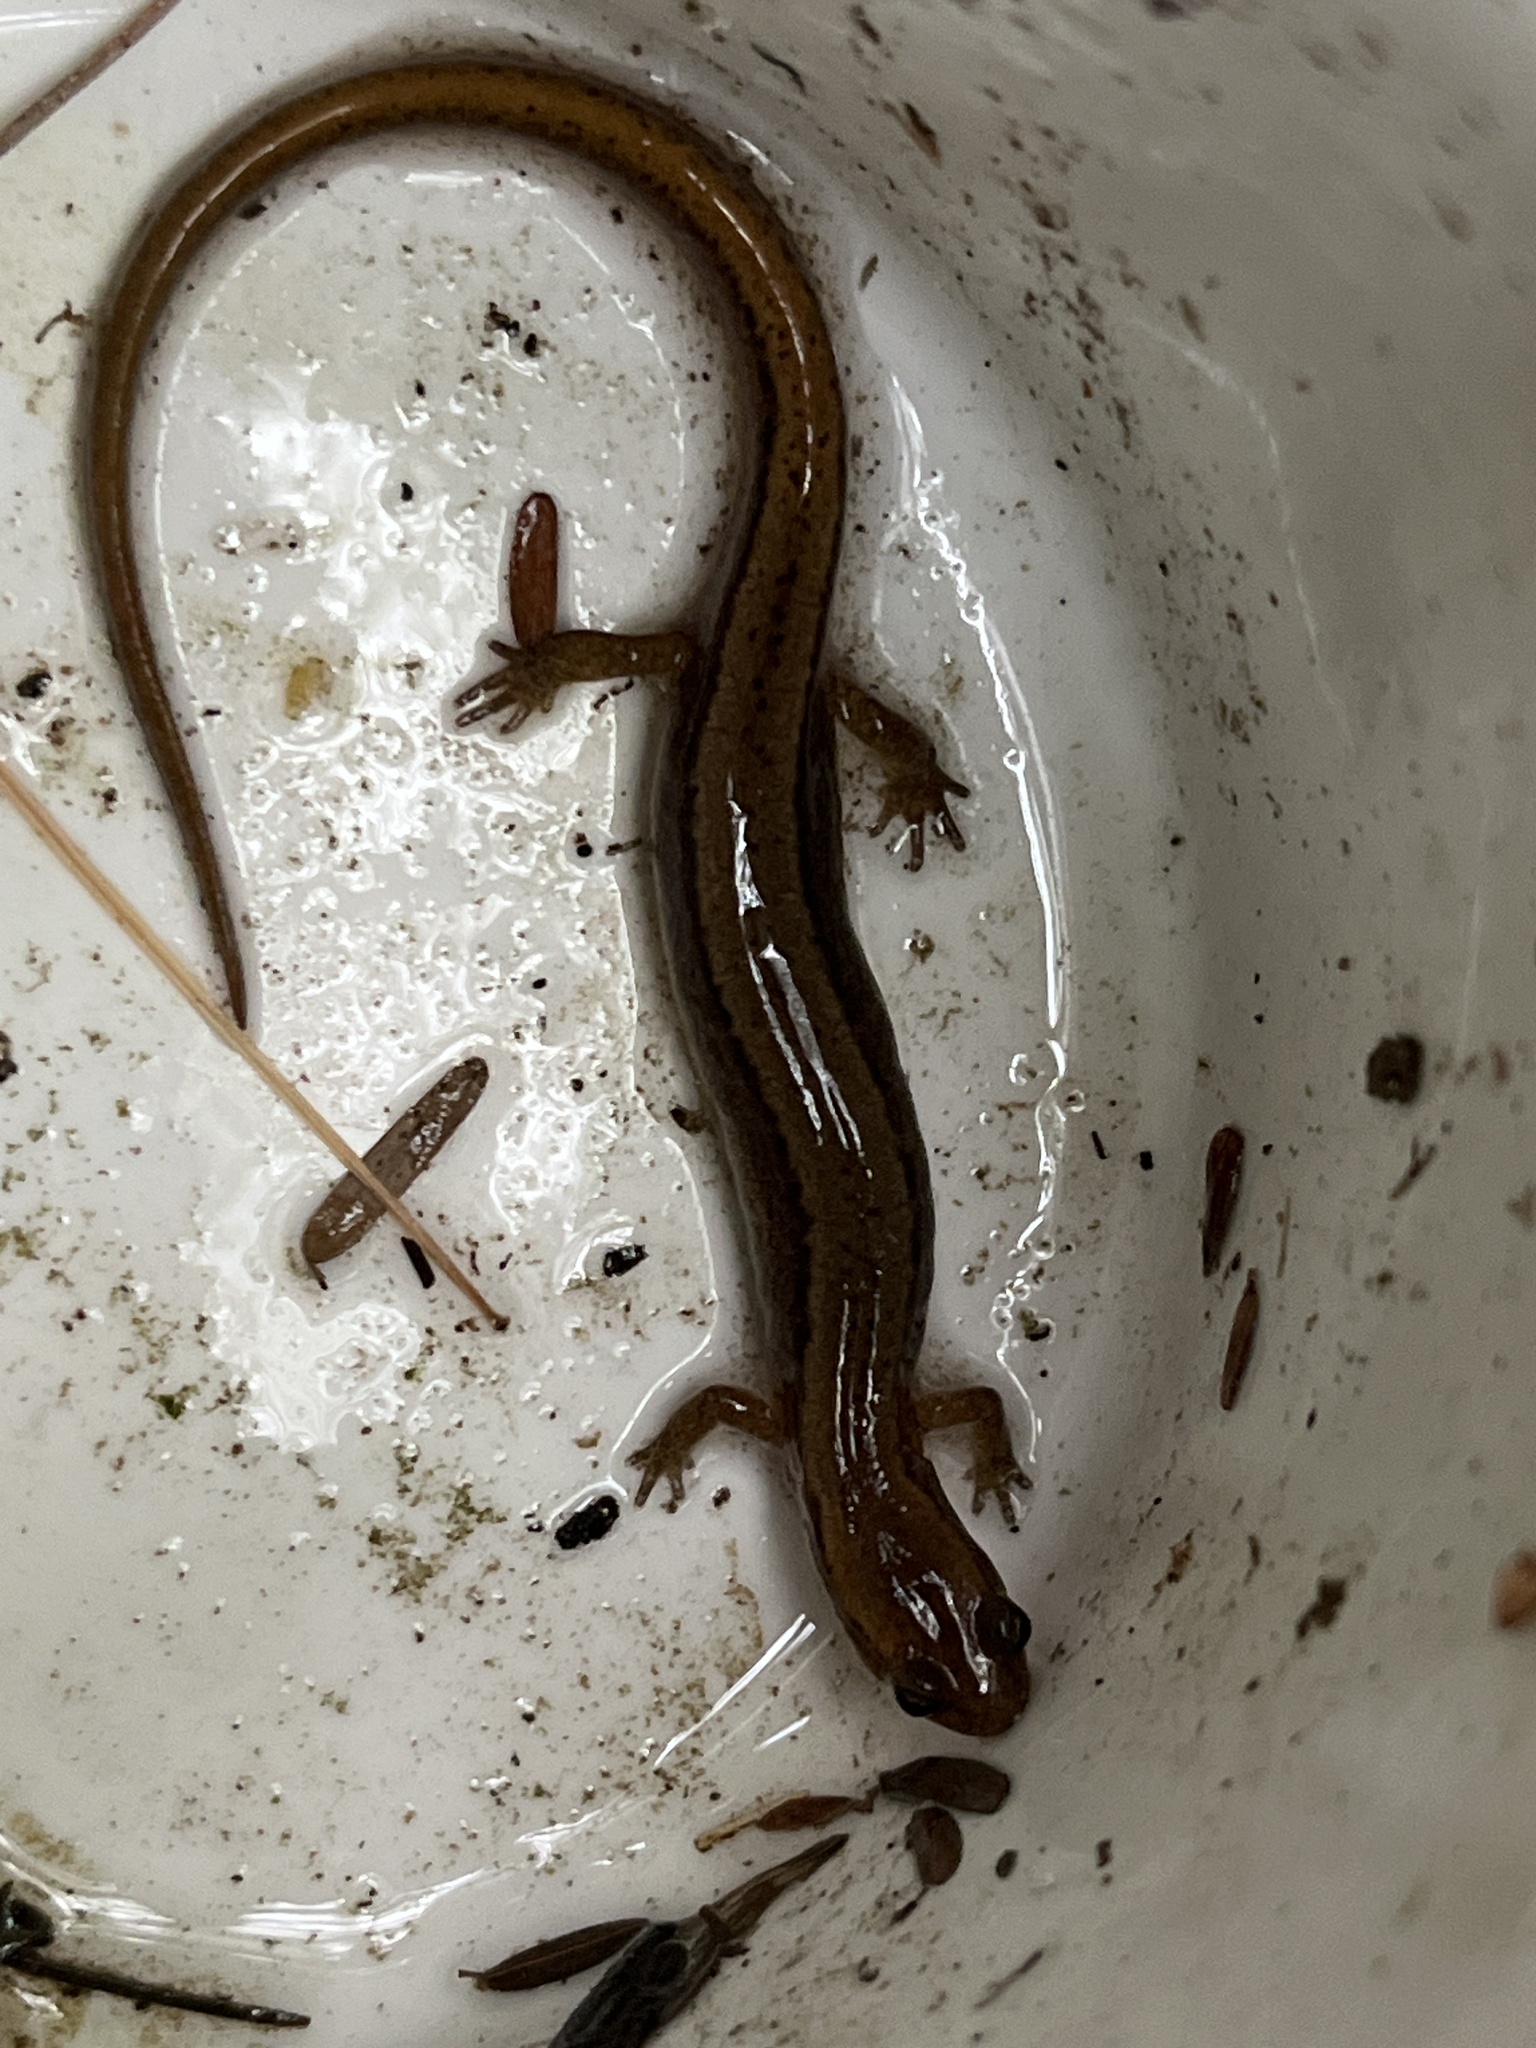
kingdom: Animalia
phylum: Chordata
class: Amphibia
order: Caudata
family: Plethodontidae
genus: Eurycea
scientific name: Eurycea bislineata
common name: Northern two-lined salamander
